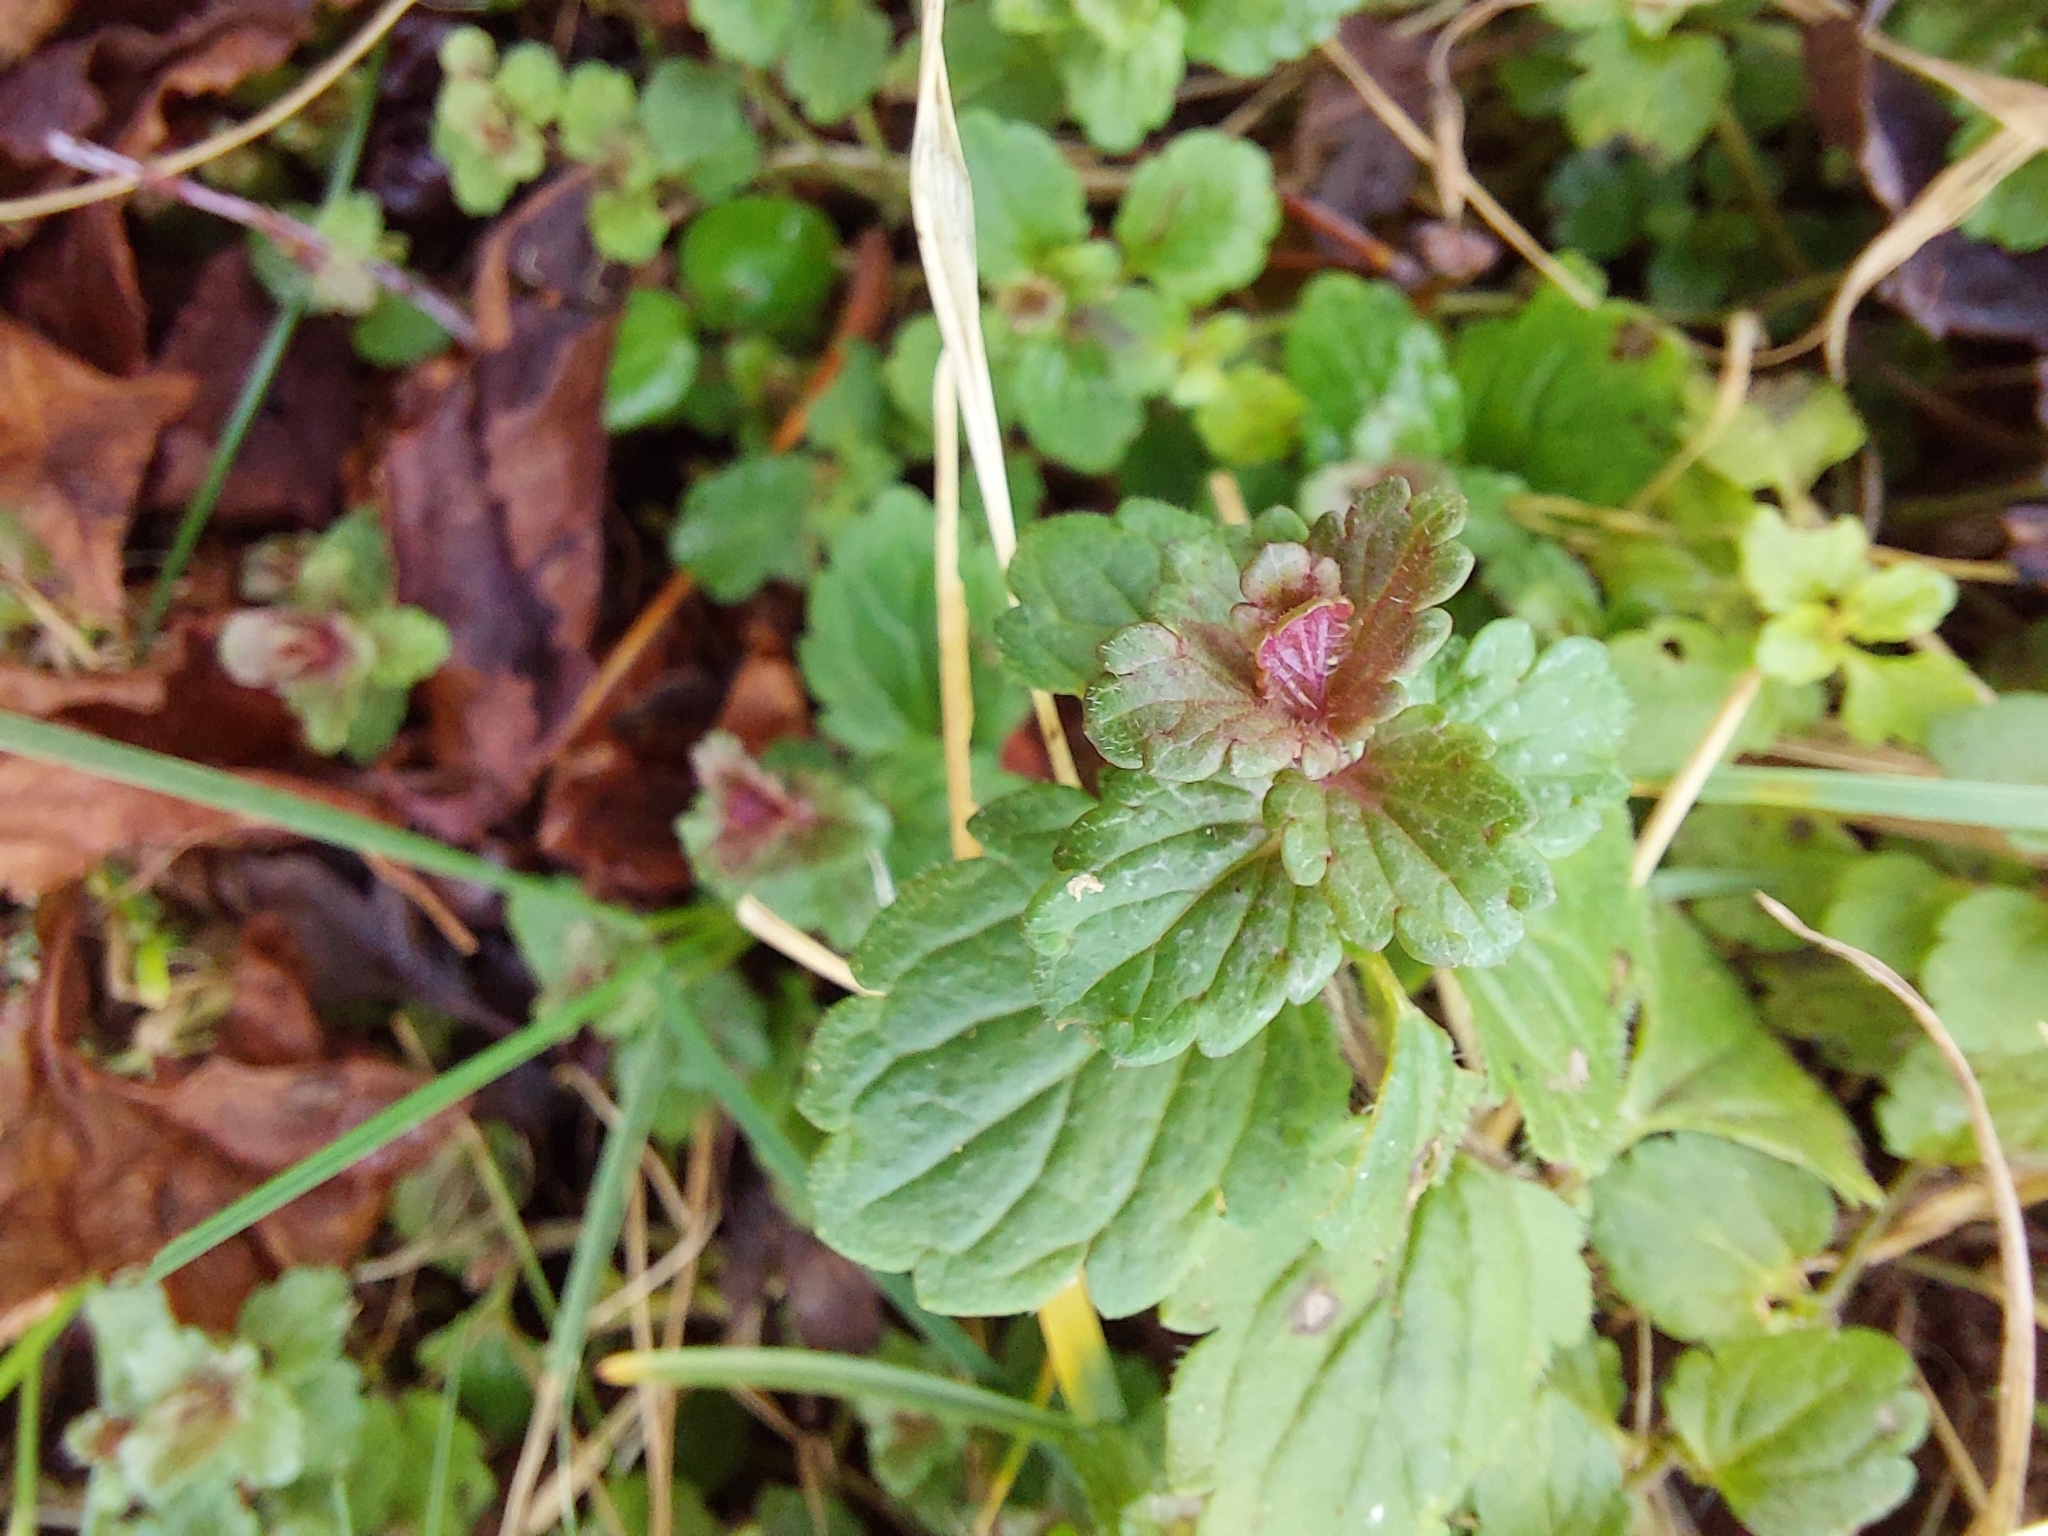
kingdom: Plantae
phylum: Tracheophyta
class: Magnoliopsida
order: Lamiales
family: Plantaginaceae
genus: Veronica
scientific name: Veronica chamaedrys
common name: Germander speedwell
